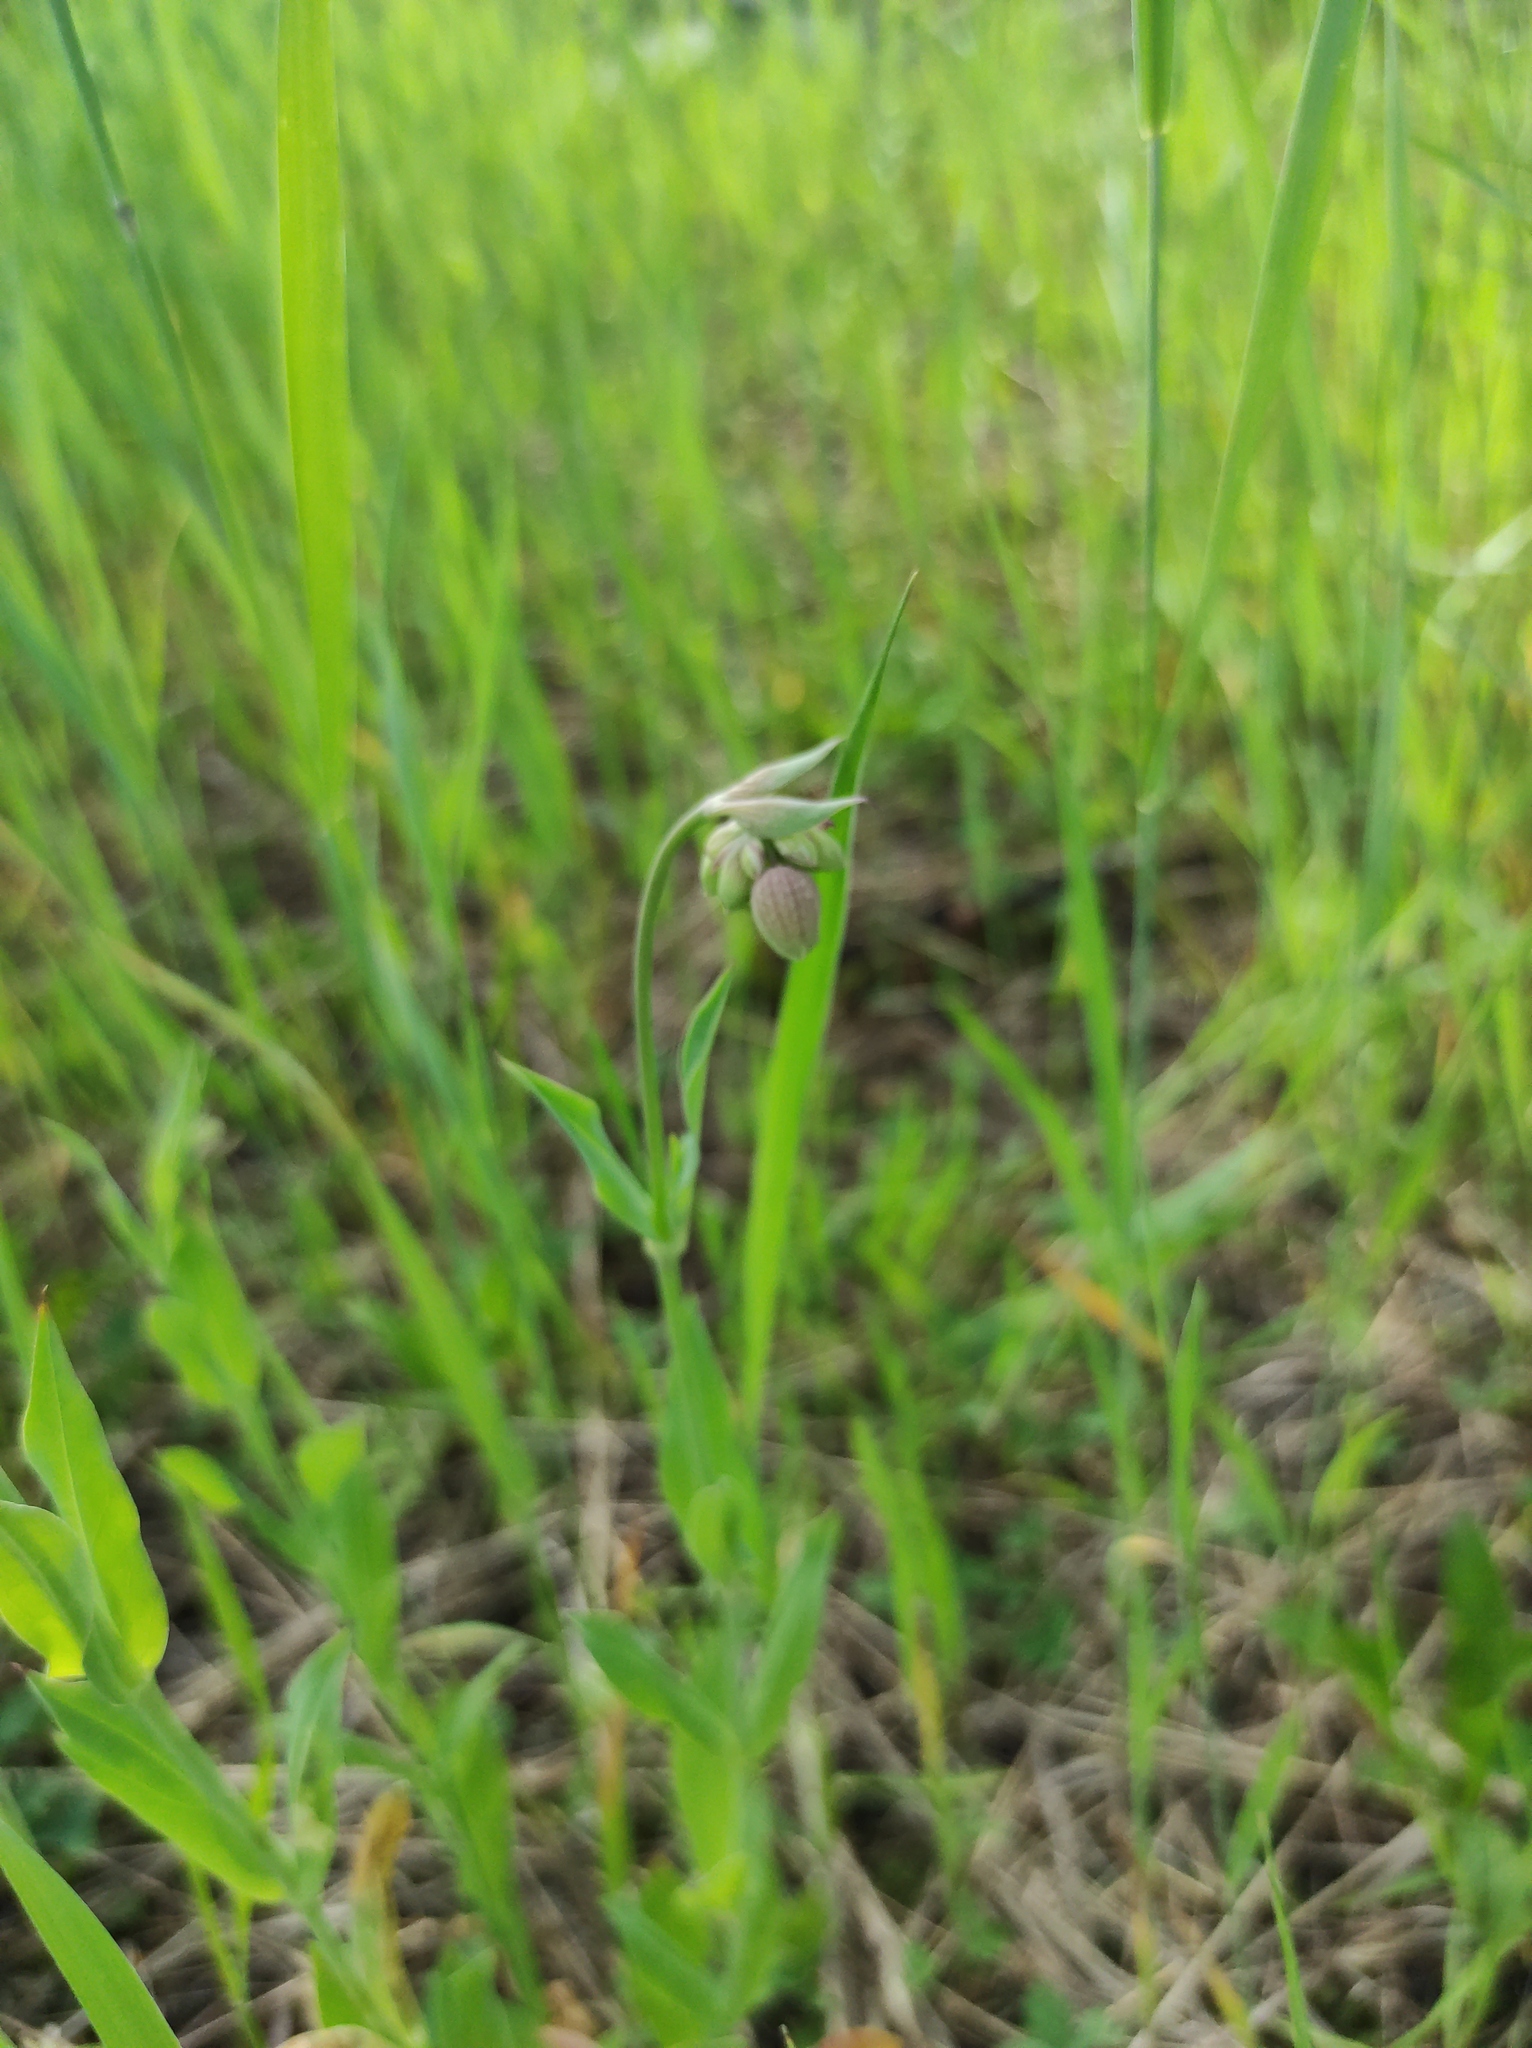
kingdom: Plantae
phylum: Tracheophyta
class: Magnoliopsida
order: Caryophyllales
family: Caryophyllaceae
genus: Silene
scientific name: Silene vulgaris
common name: Bladder campion
